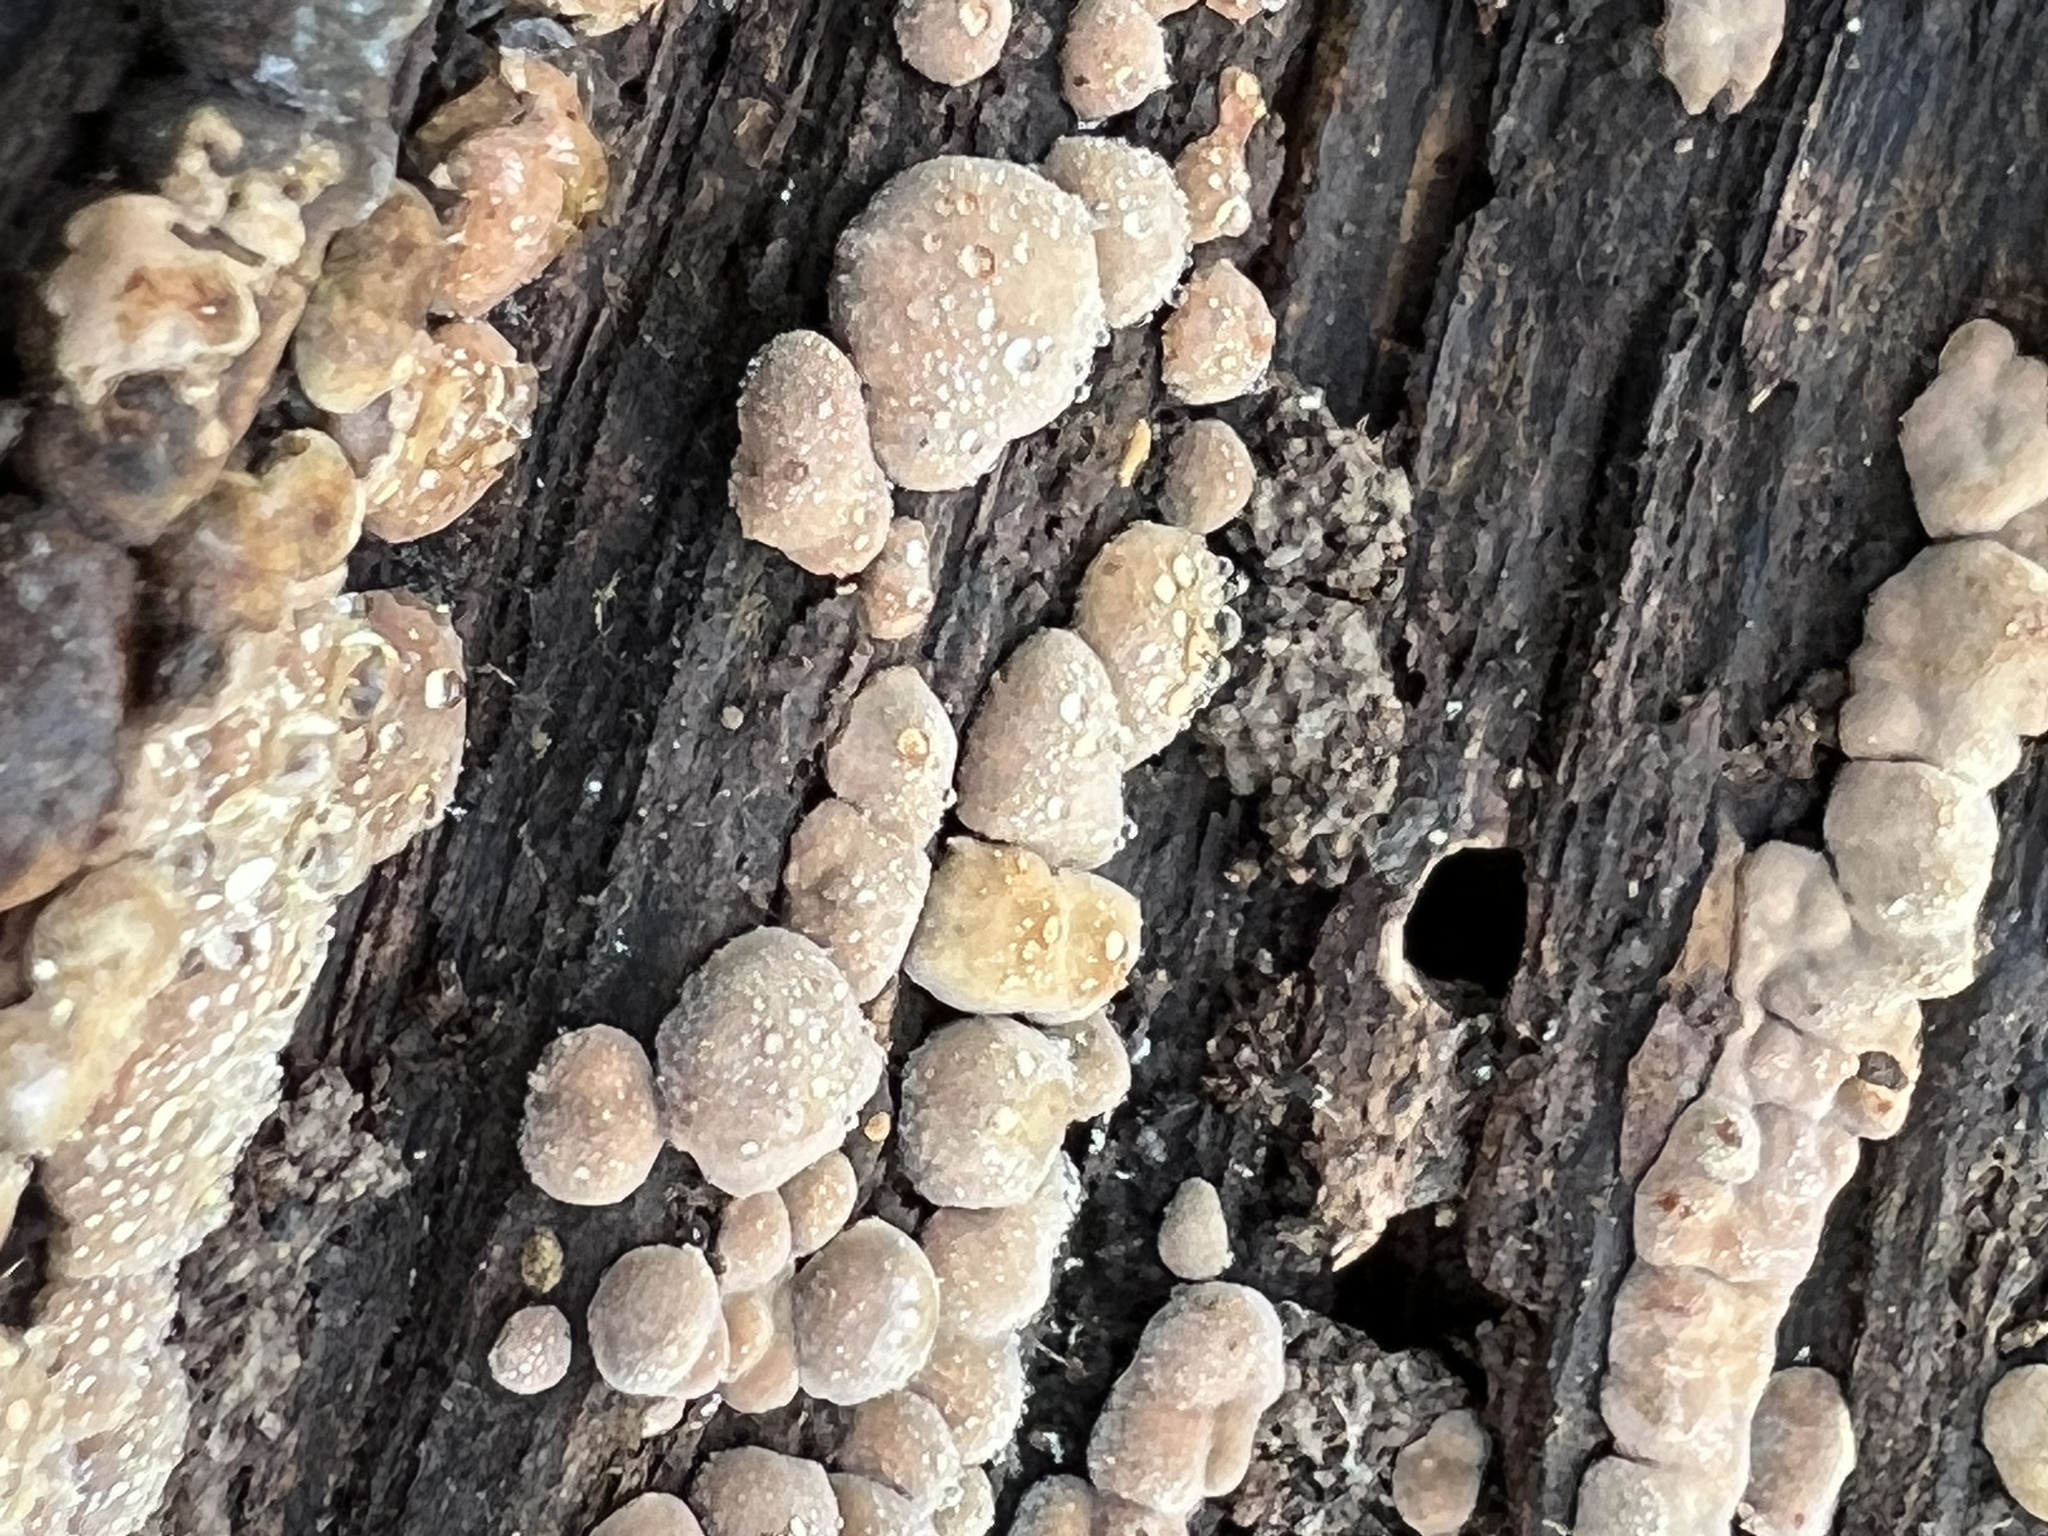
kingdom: Fungi
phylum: Basidiomycota
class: Agaricomycetes
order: Russulales
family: Stereaceae
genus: Xylobolus
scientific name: Xylobolus frustulatus
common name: Ceramic parchment
